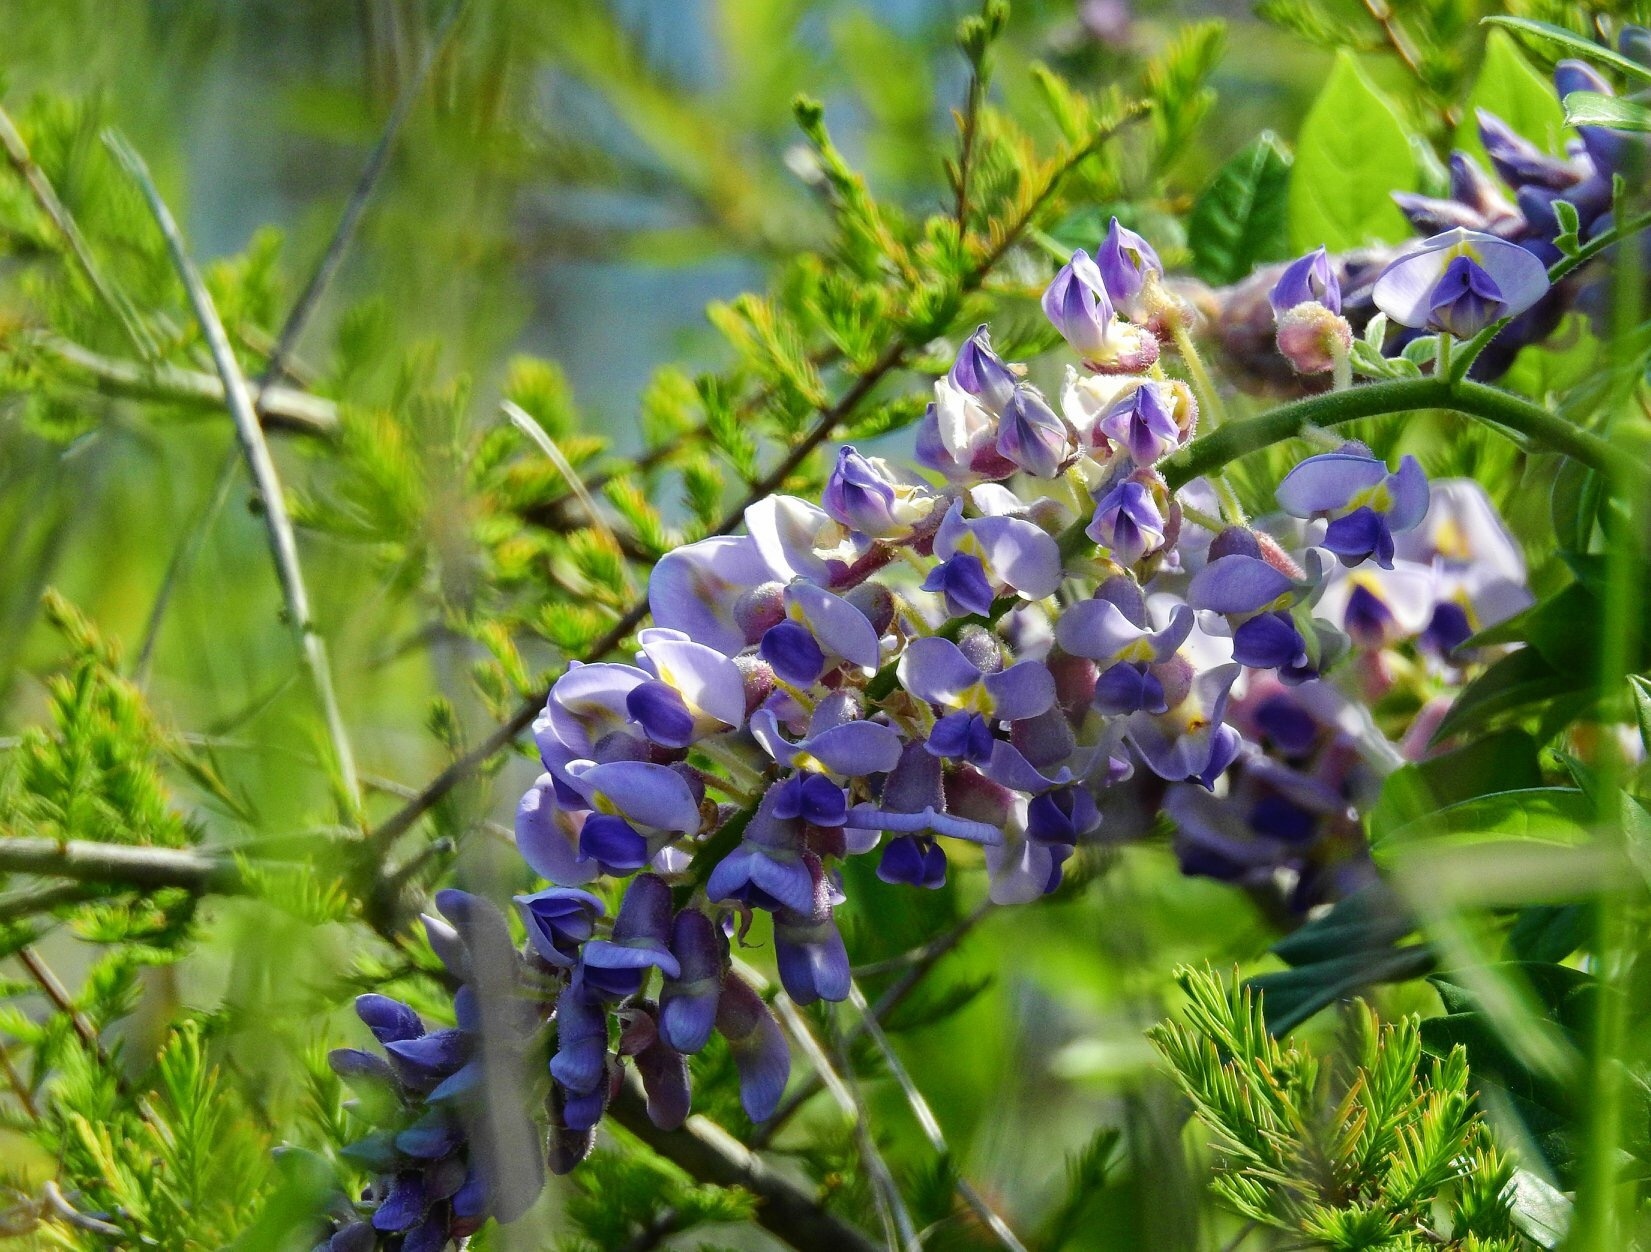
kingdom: Plantae
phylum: Tracheophyta
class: Magnoliopsida
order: Fabales
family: Fabaceae
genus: Wisteria
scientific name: Wisteria frutescens
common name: American wisteria
